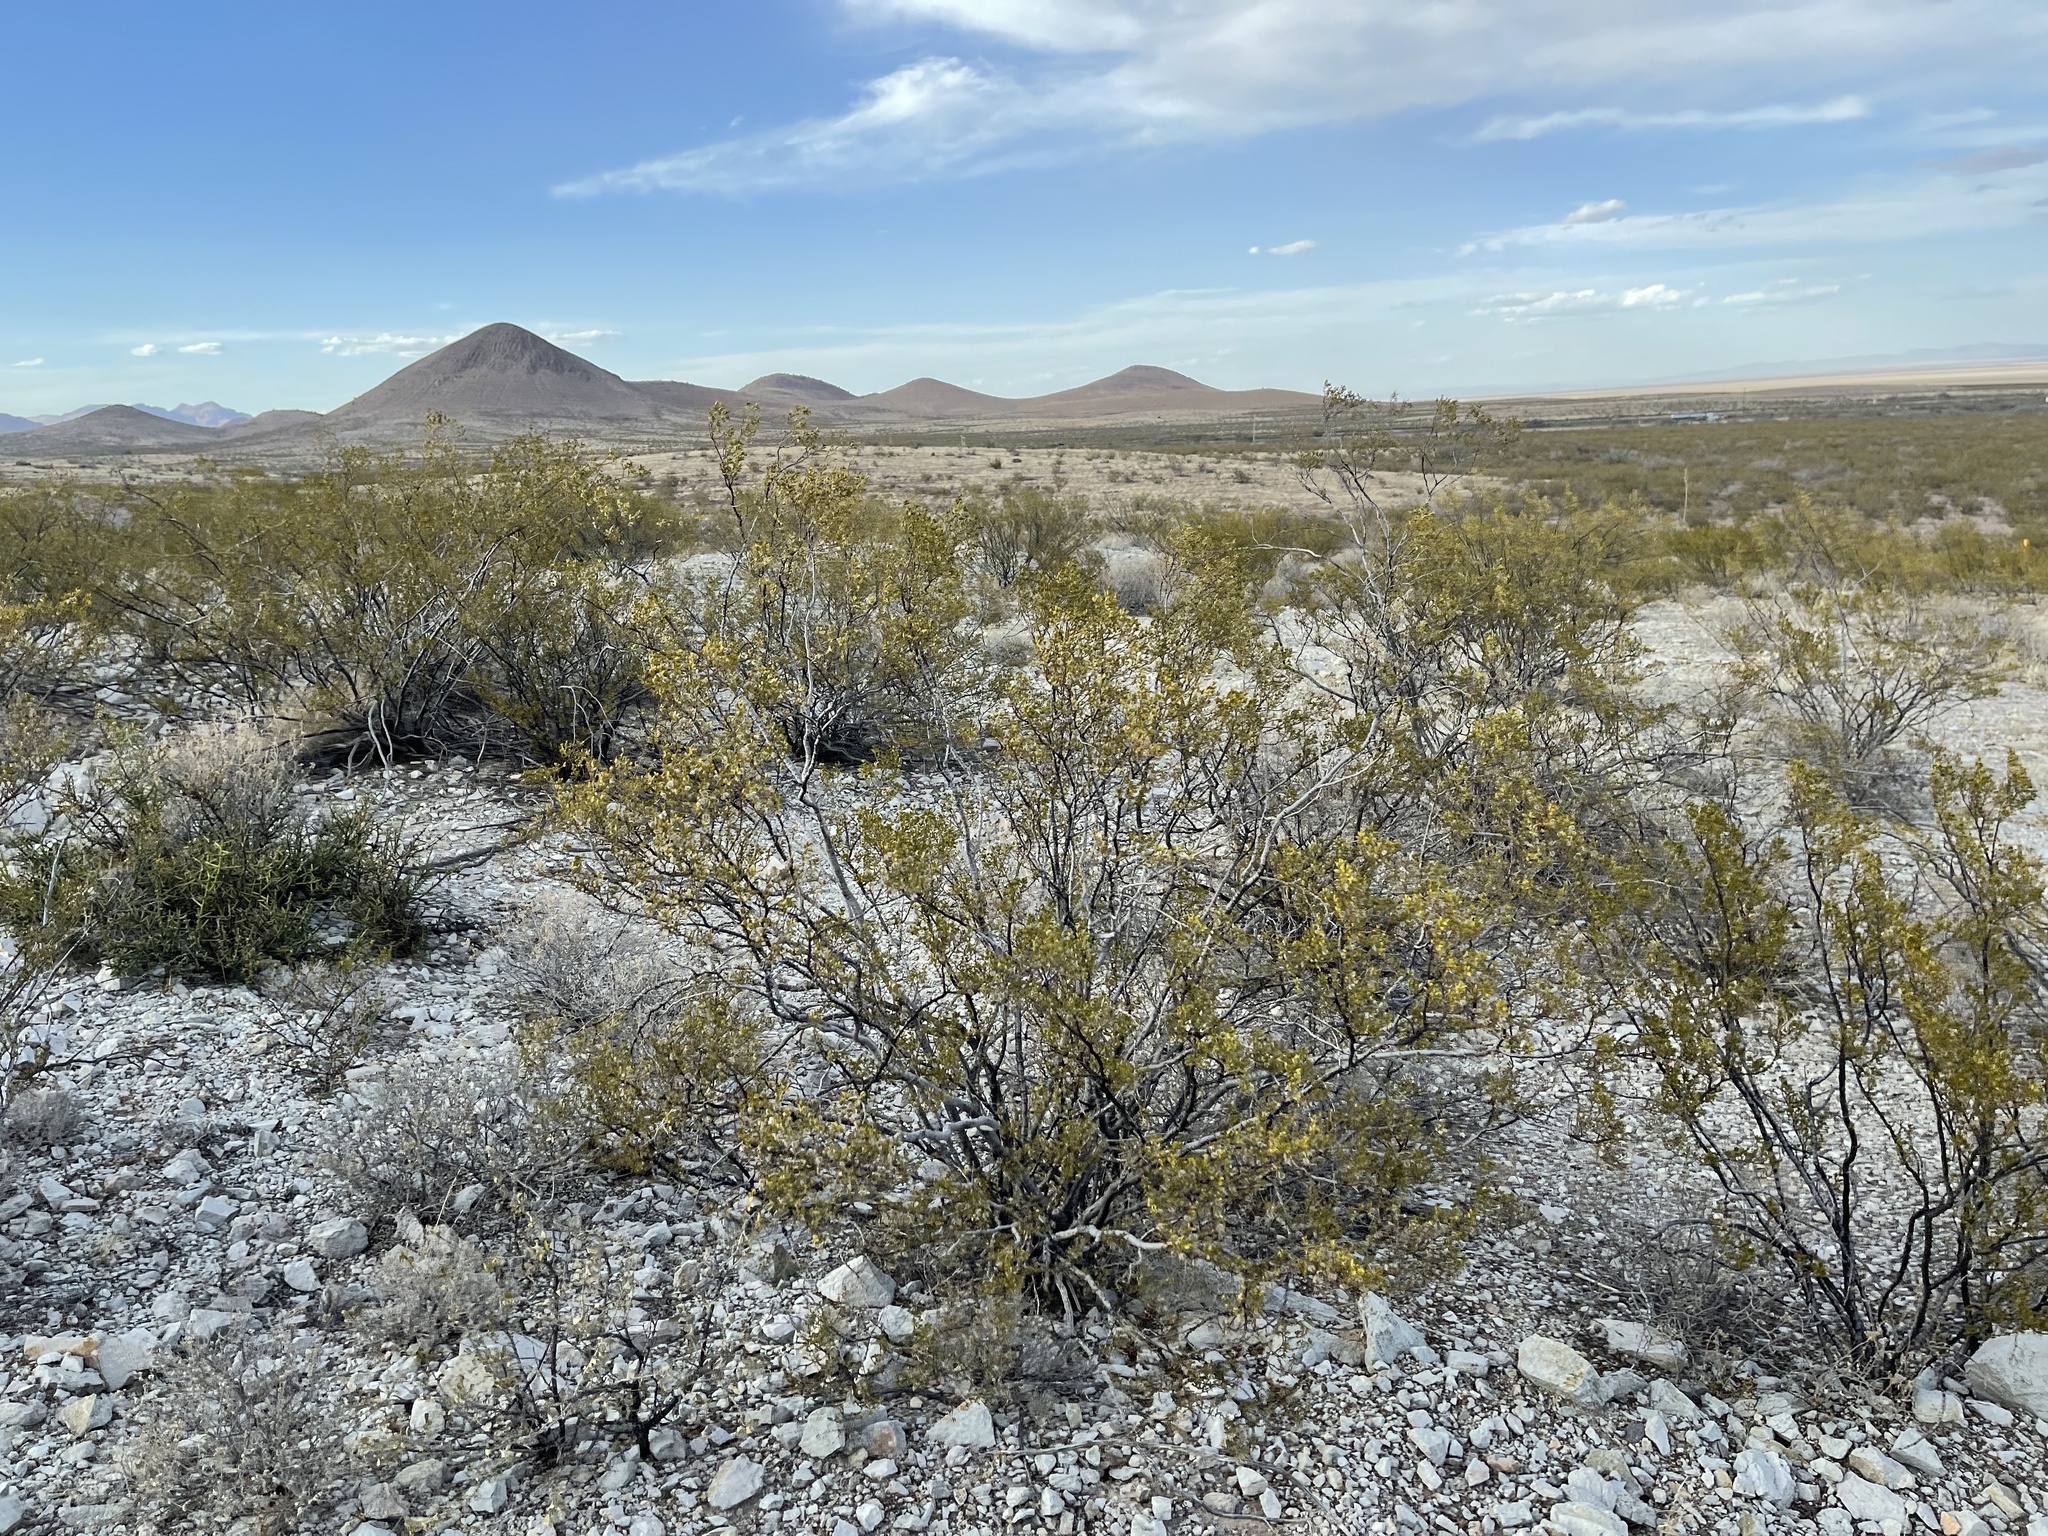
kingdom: Plantae
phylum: Tracheophyta
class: Magnoliopsida
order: Zygophyllales
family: Zygophyllaceae
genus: Larrea
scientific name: Larrea tridentata
